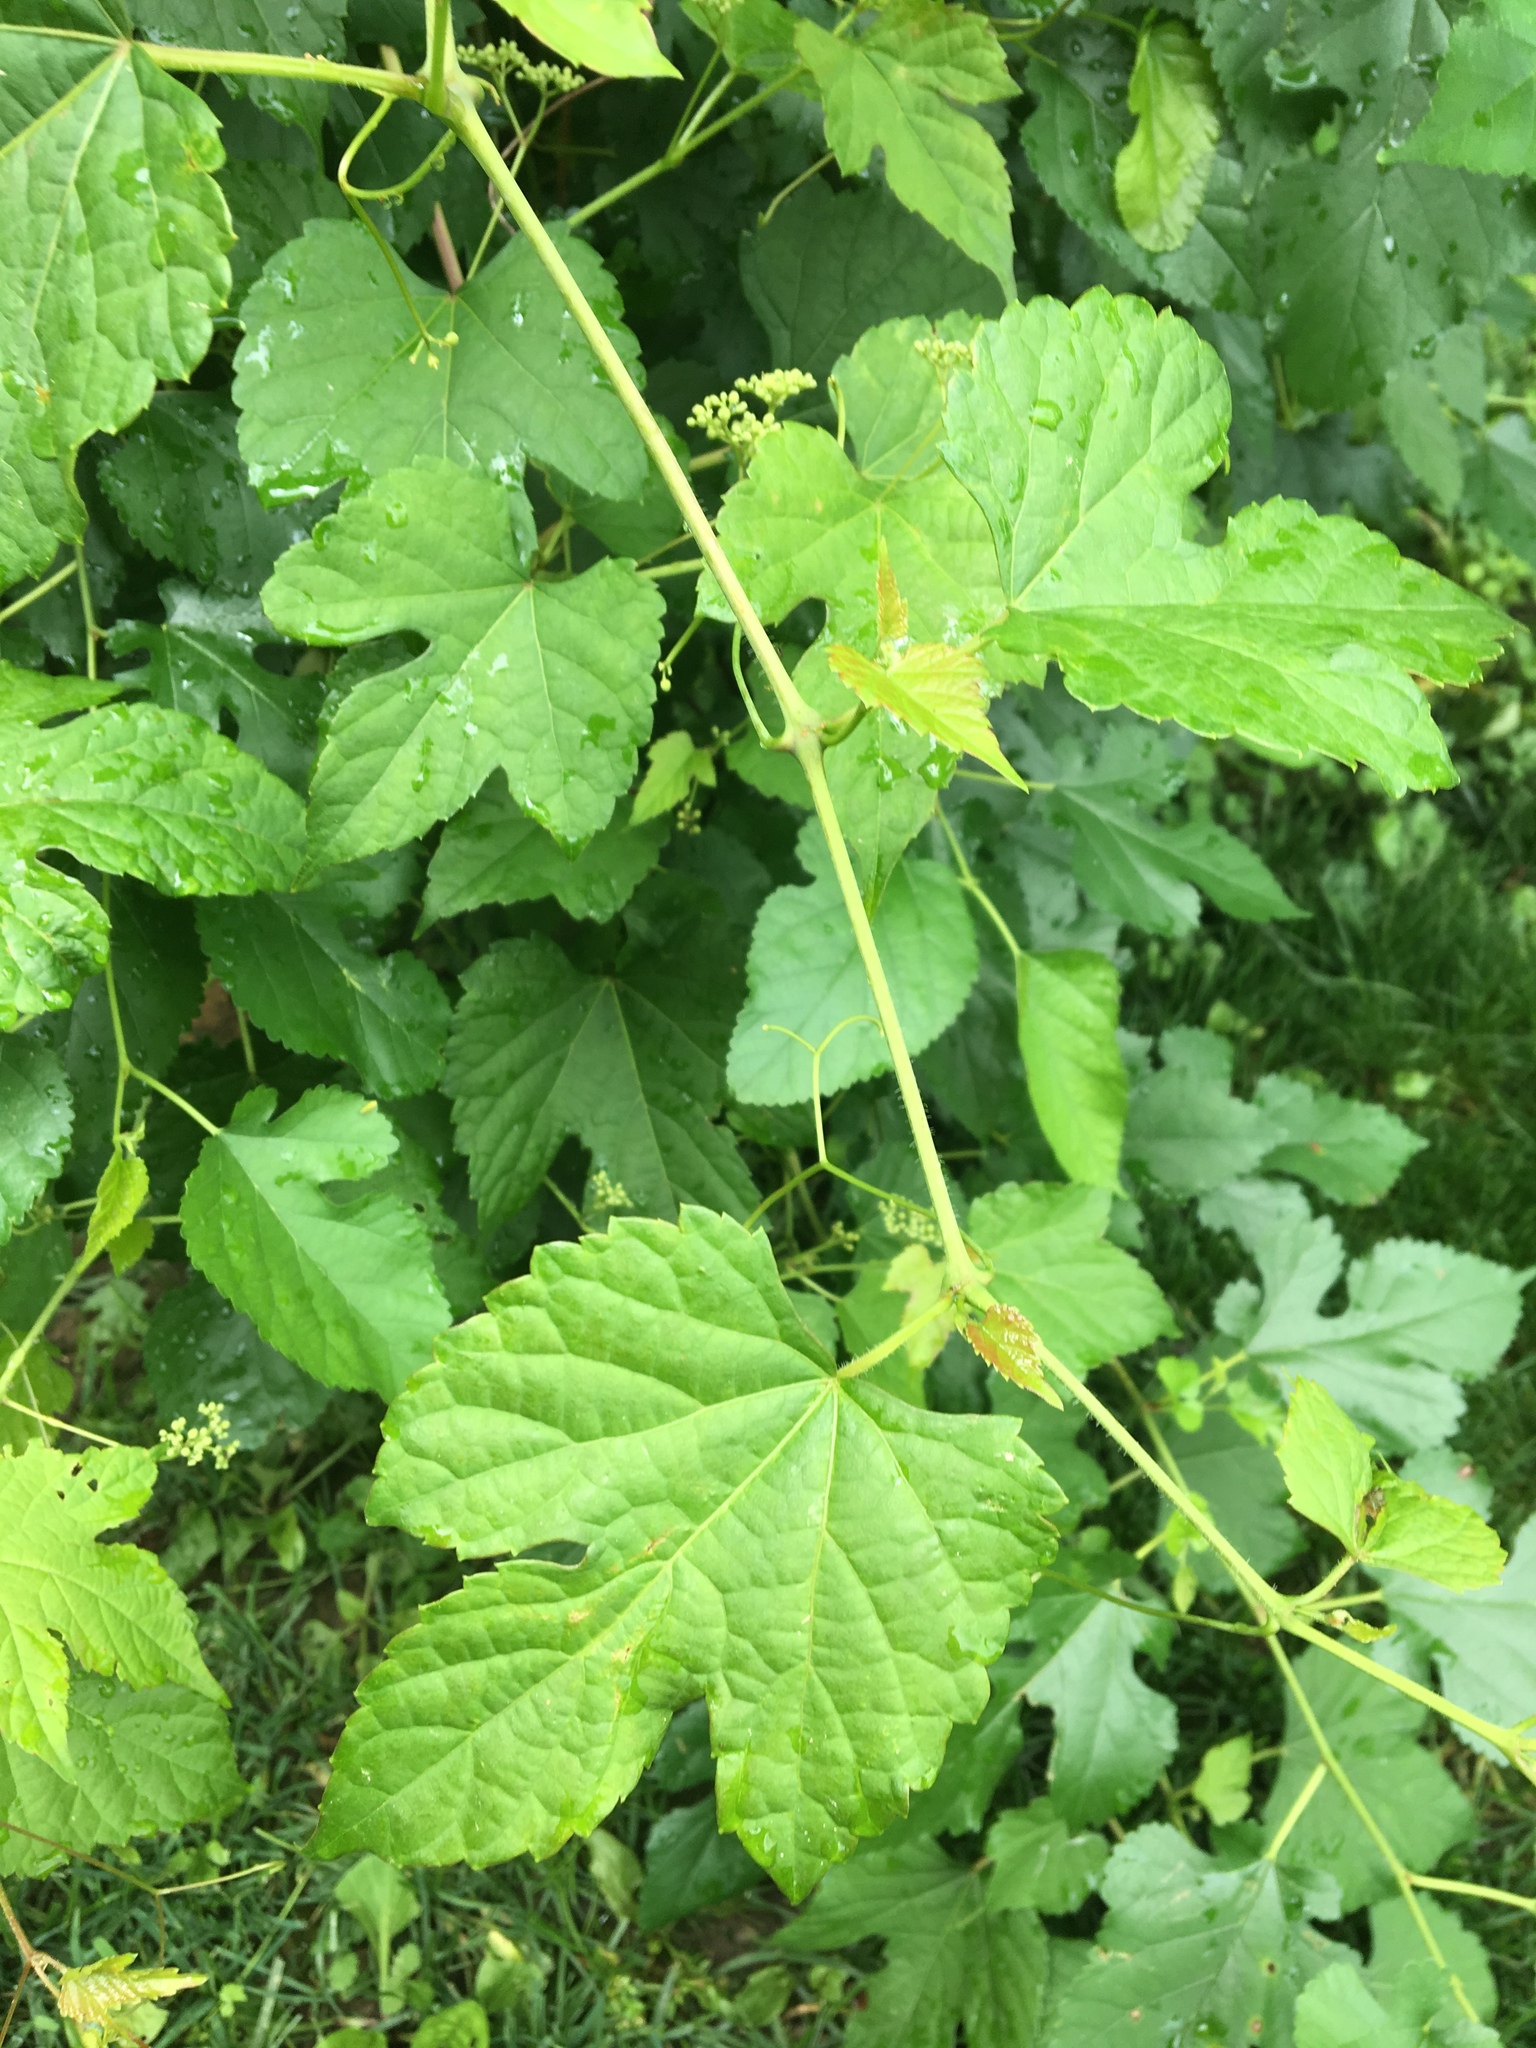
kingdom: Plantae
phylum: Tracheophyta
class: Magnoliopsida
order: Vitales
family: Vitaceae
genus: Ampelopsis
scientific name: Ampelopsis glandulosa
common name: Amur peppervine
